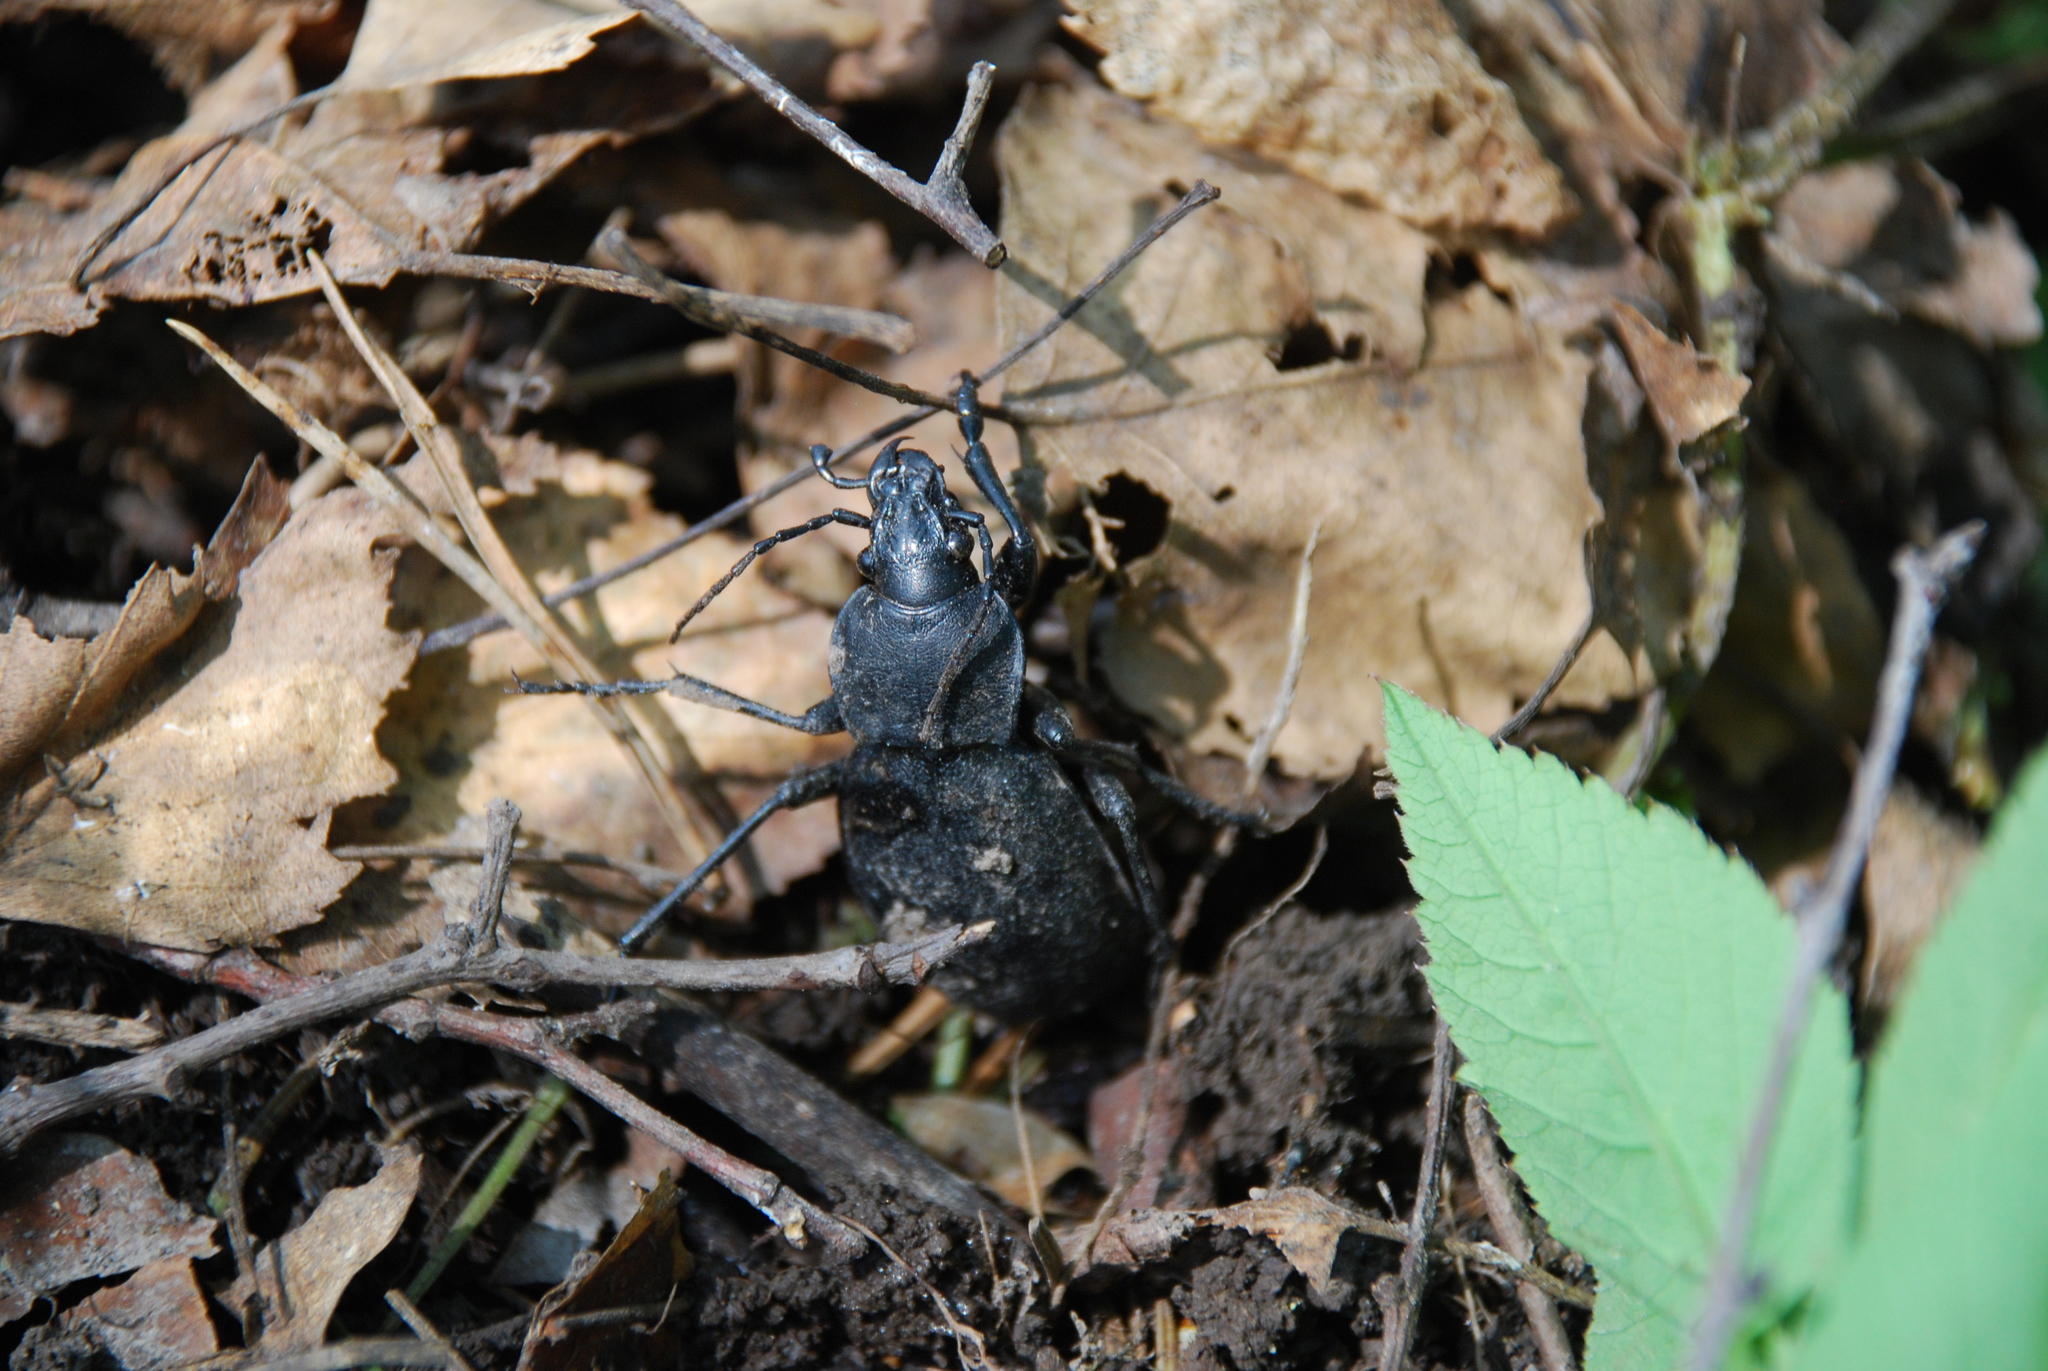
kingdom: Animalia
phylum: Arthropoda
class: Insecta
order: Coleoptera
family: Carabidae
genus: Carabus
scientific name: Carabus coriaceus
